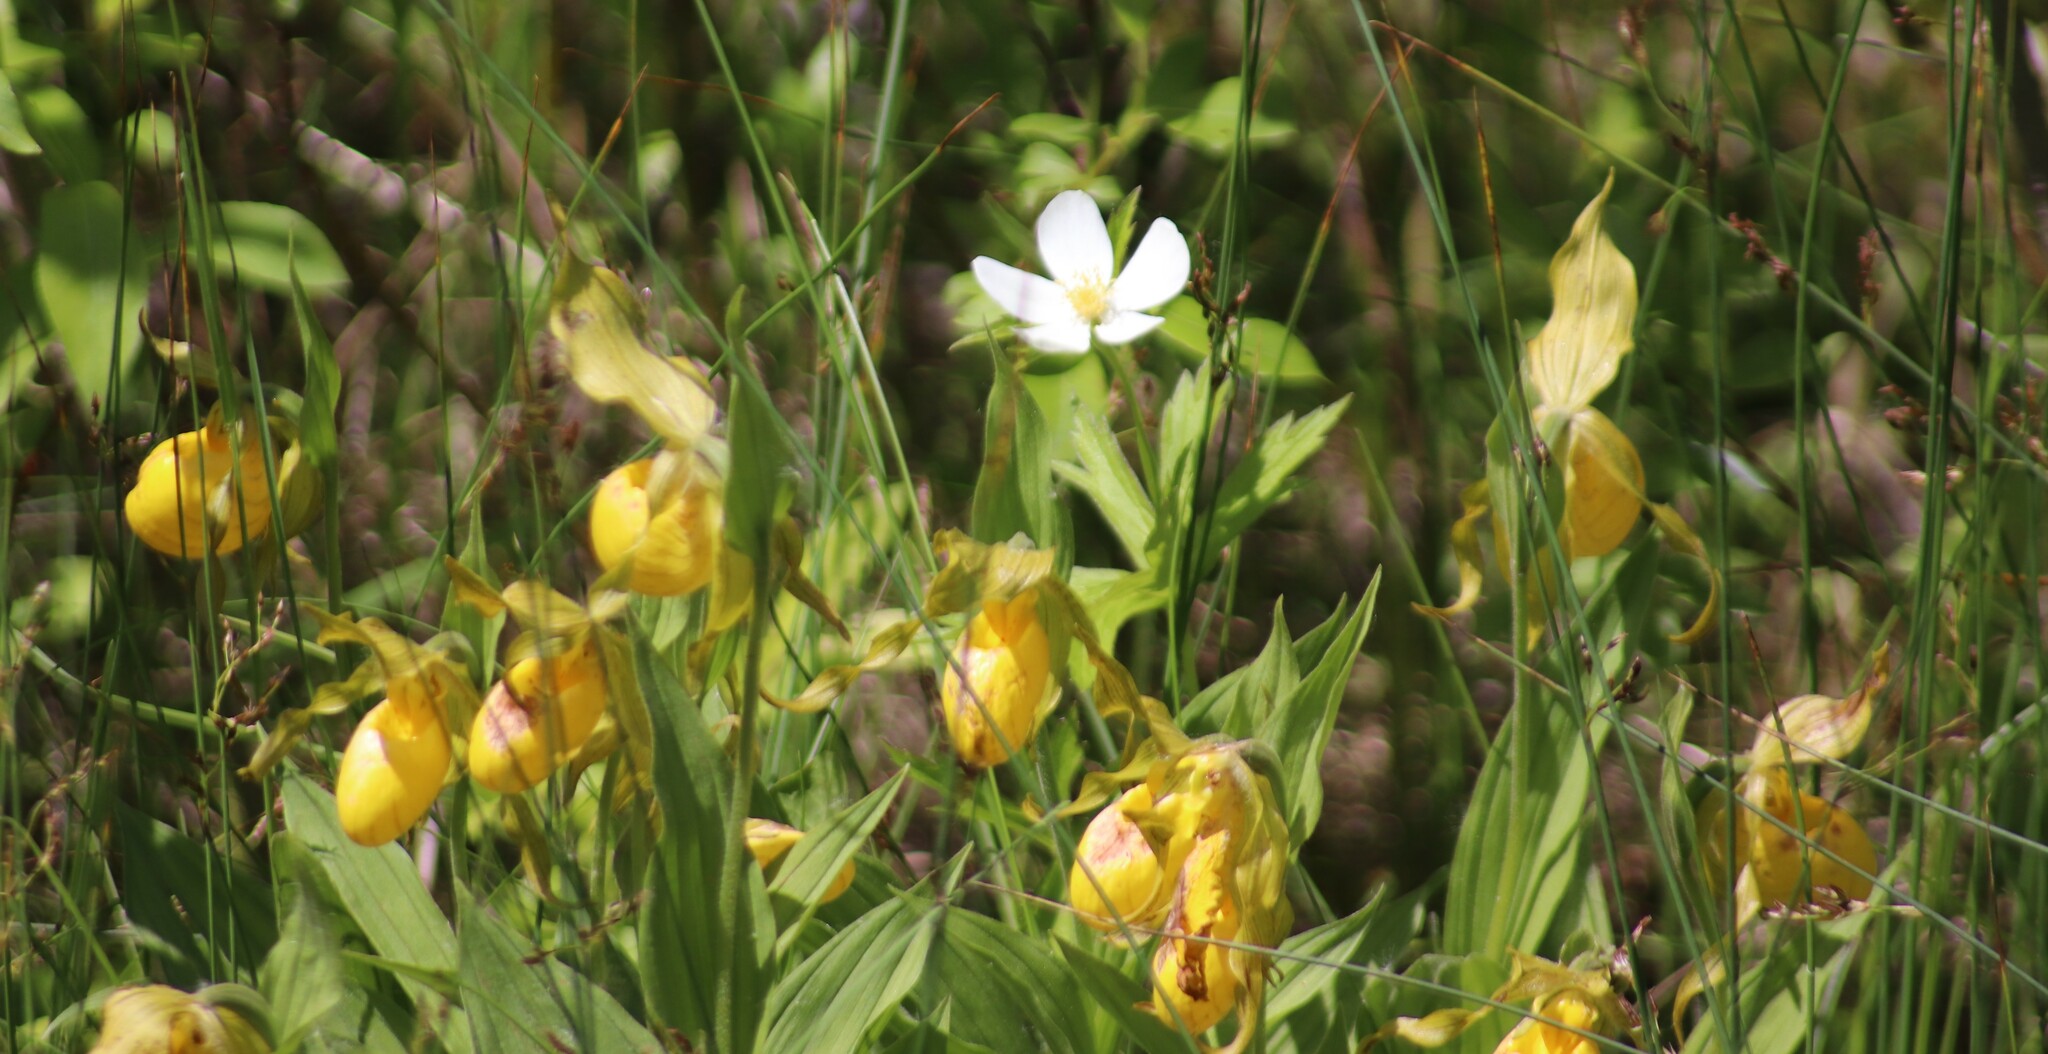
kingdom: Plantae
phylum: Tracheophyta
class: Liliopsida
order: Asparagales
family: Orchidaceae
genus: Cypripedium
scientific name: Cypripedium parviflorum
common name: American yellow lady's-slipper
